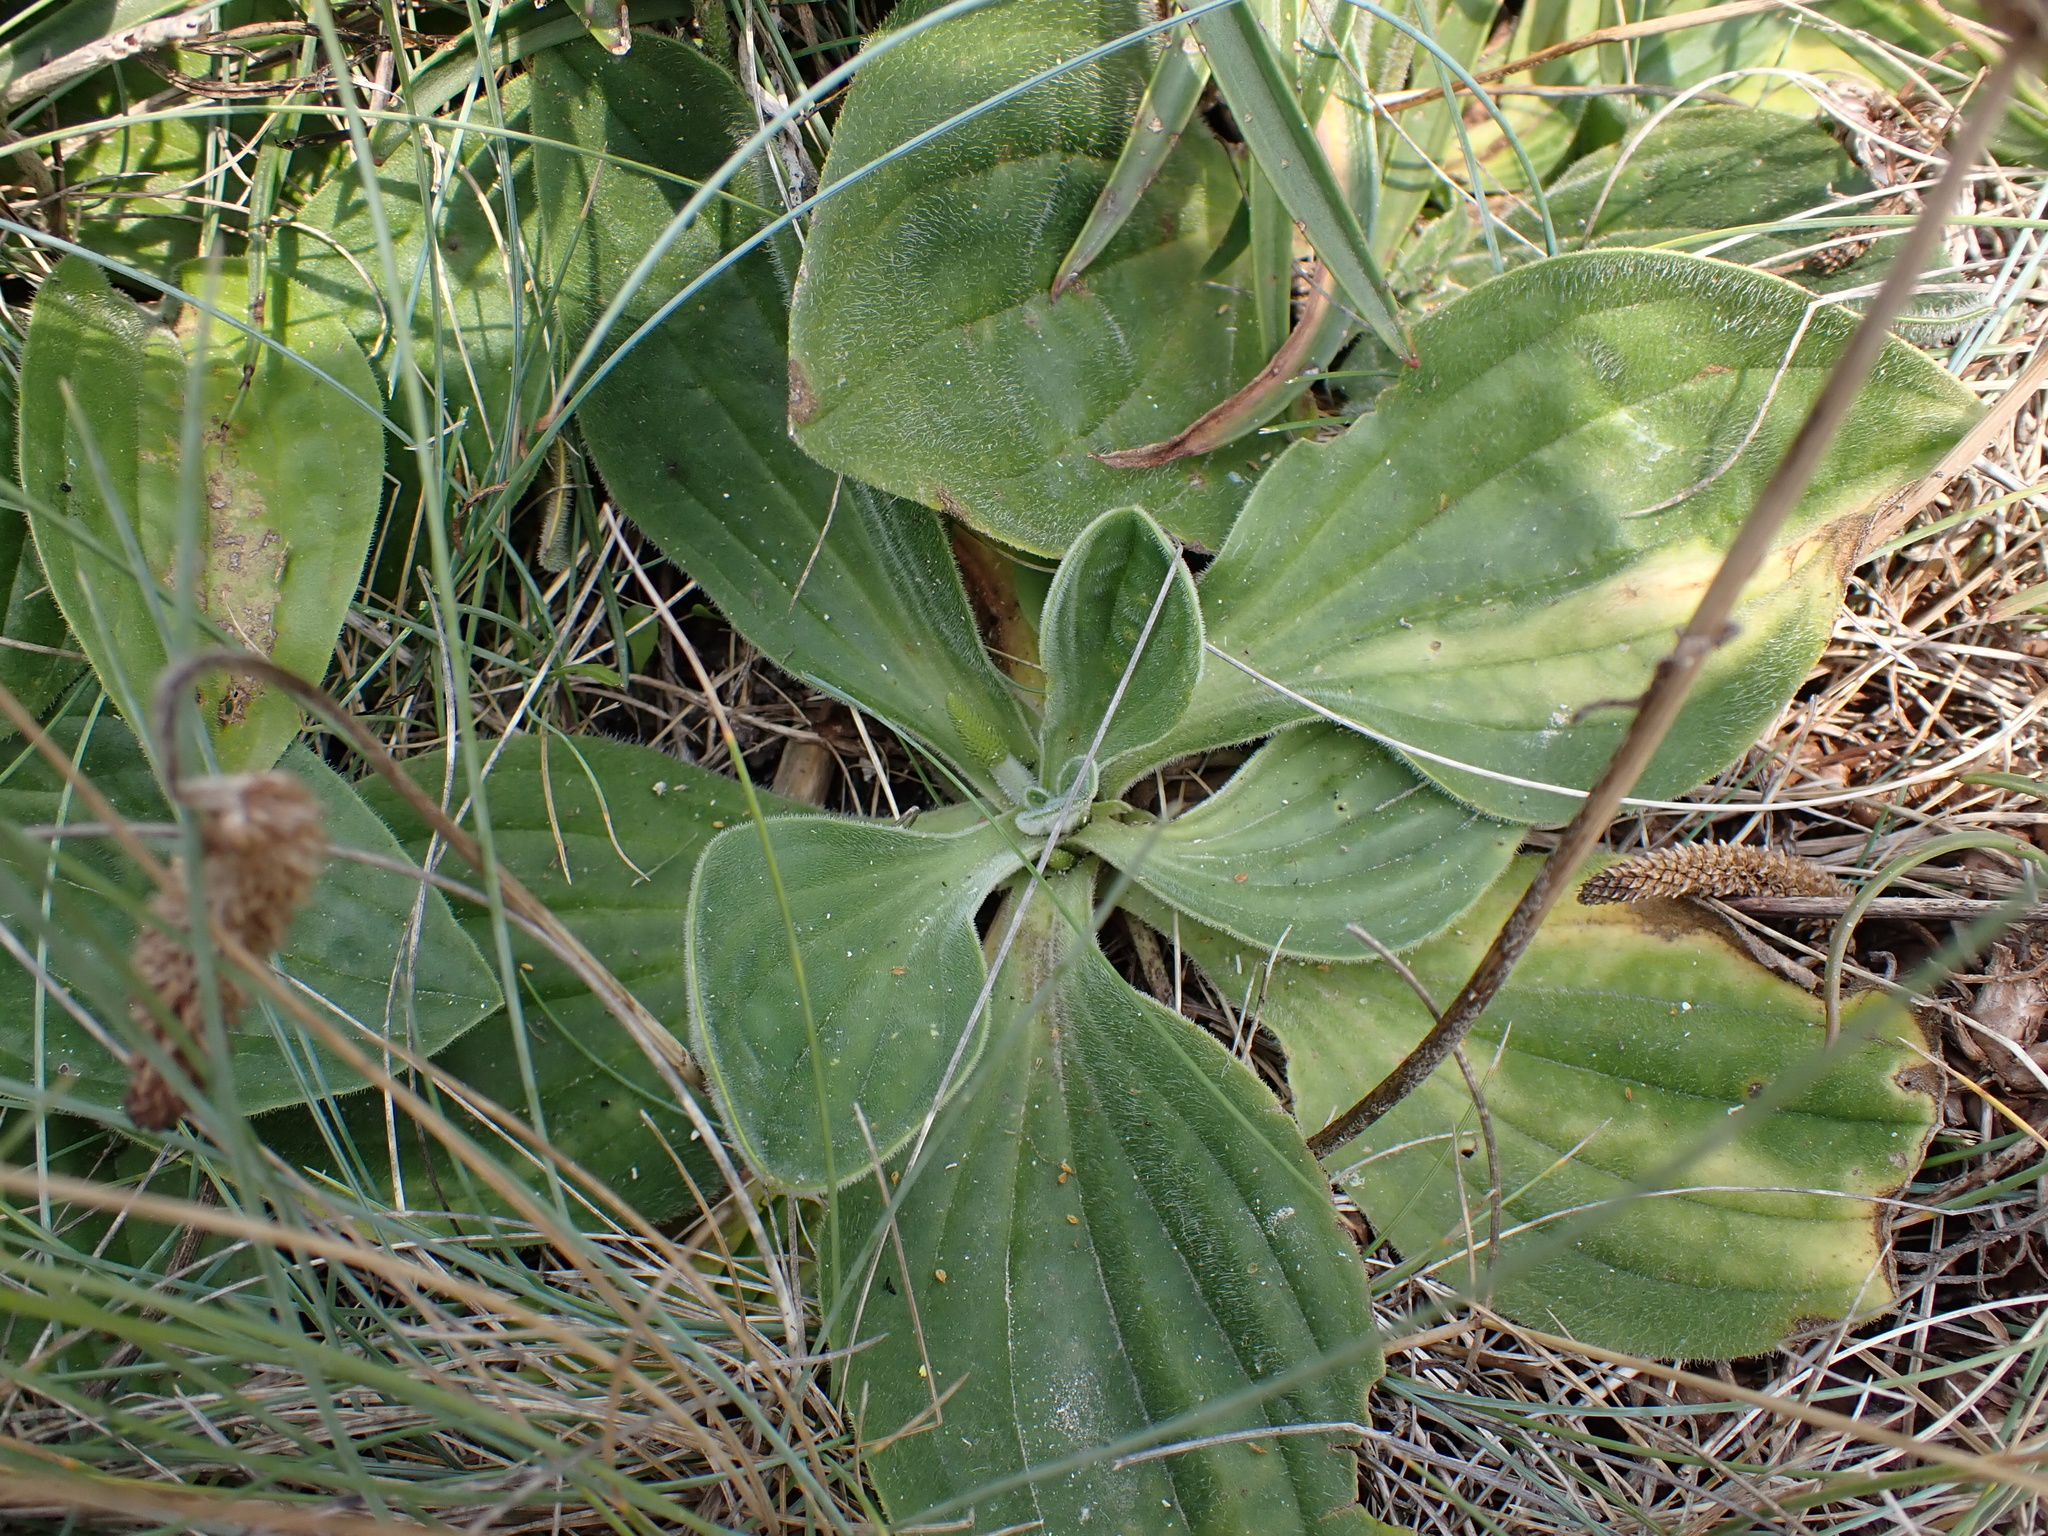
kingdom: Plantae
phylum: Tracheophyta
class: Magnoliopsida
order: Lamiales
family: Plantaginaceae
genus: Plantago
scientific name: Plantago media
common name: Hoary plantain
